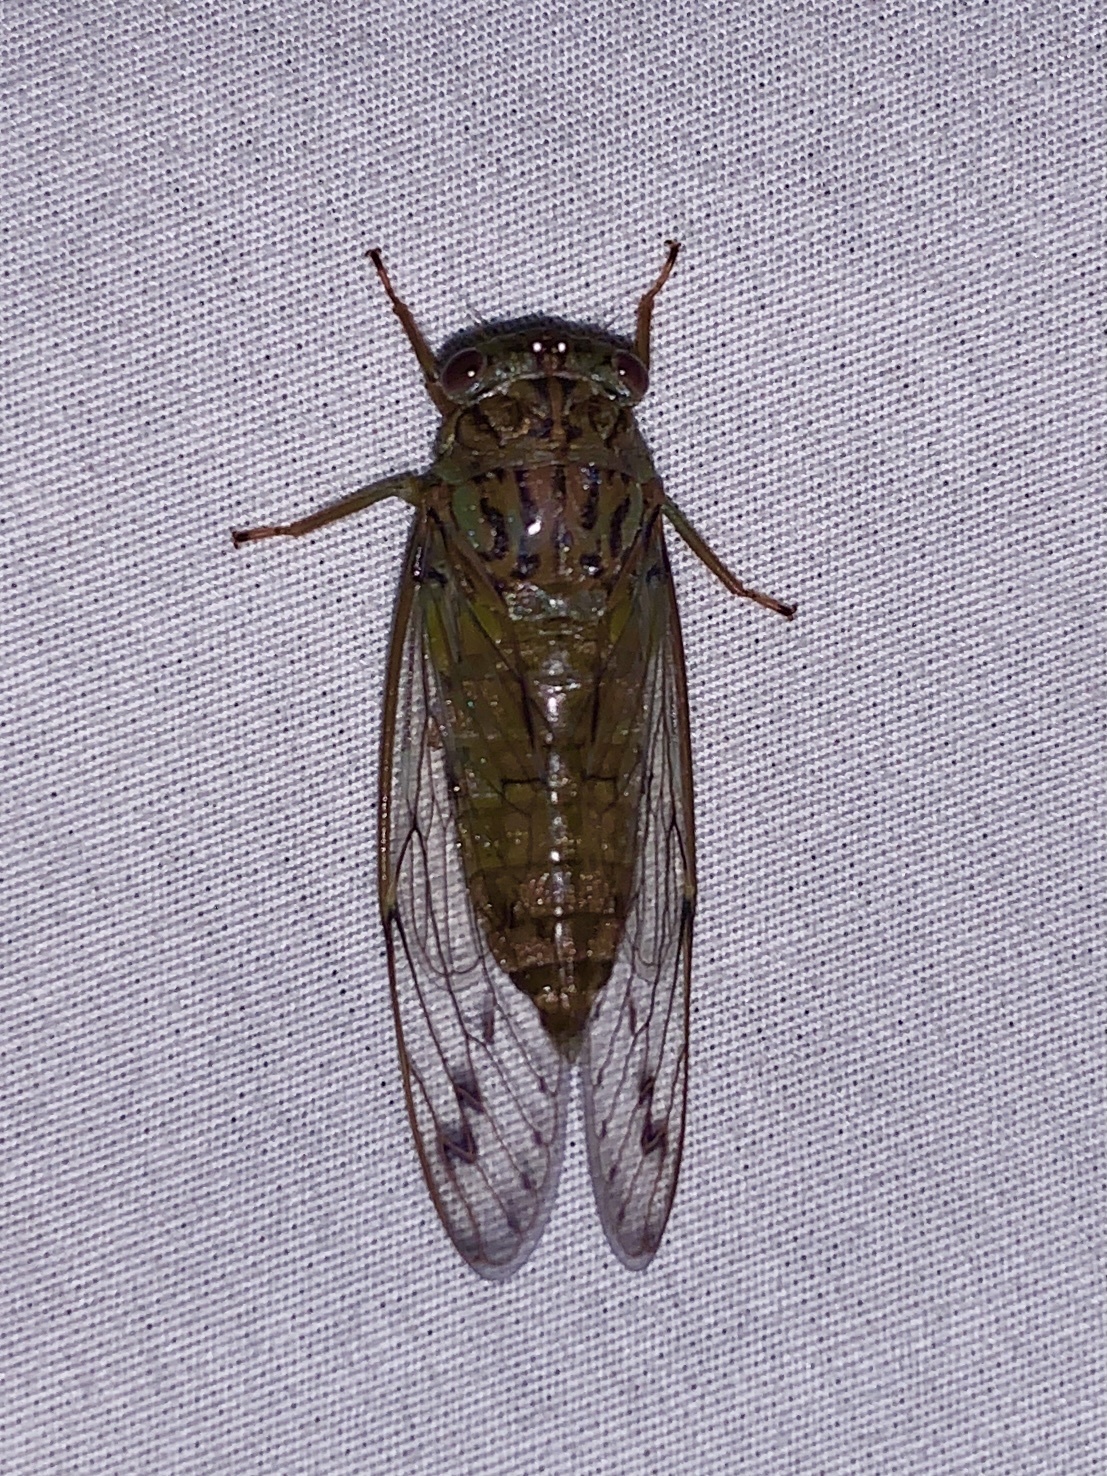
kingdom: Animalia
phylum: Arthropoda
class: Insecta
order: Hemiptera
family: Cicadidae
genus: Neocicada
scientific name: Neocicada hieroglyphica
